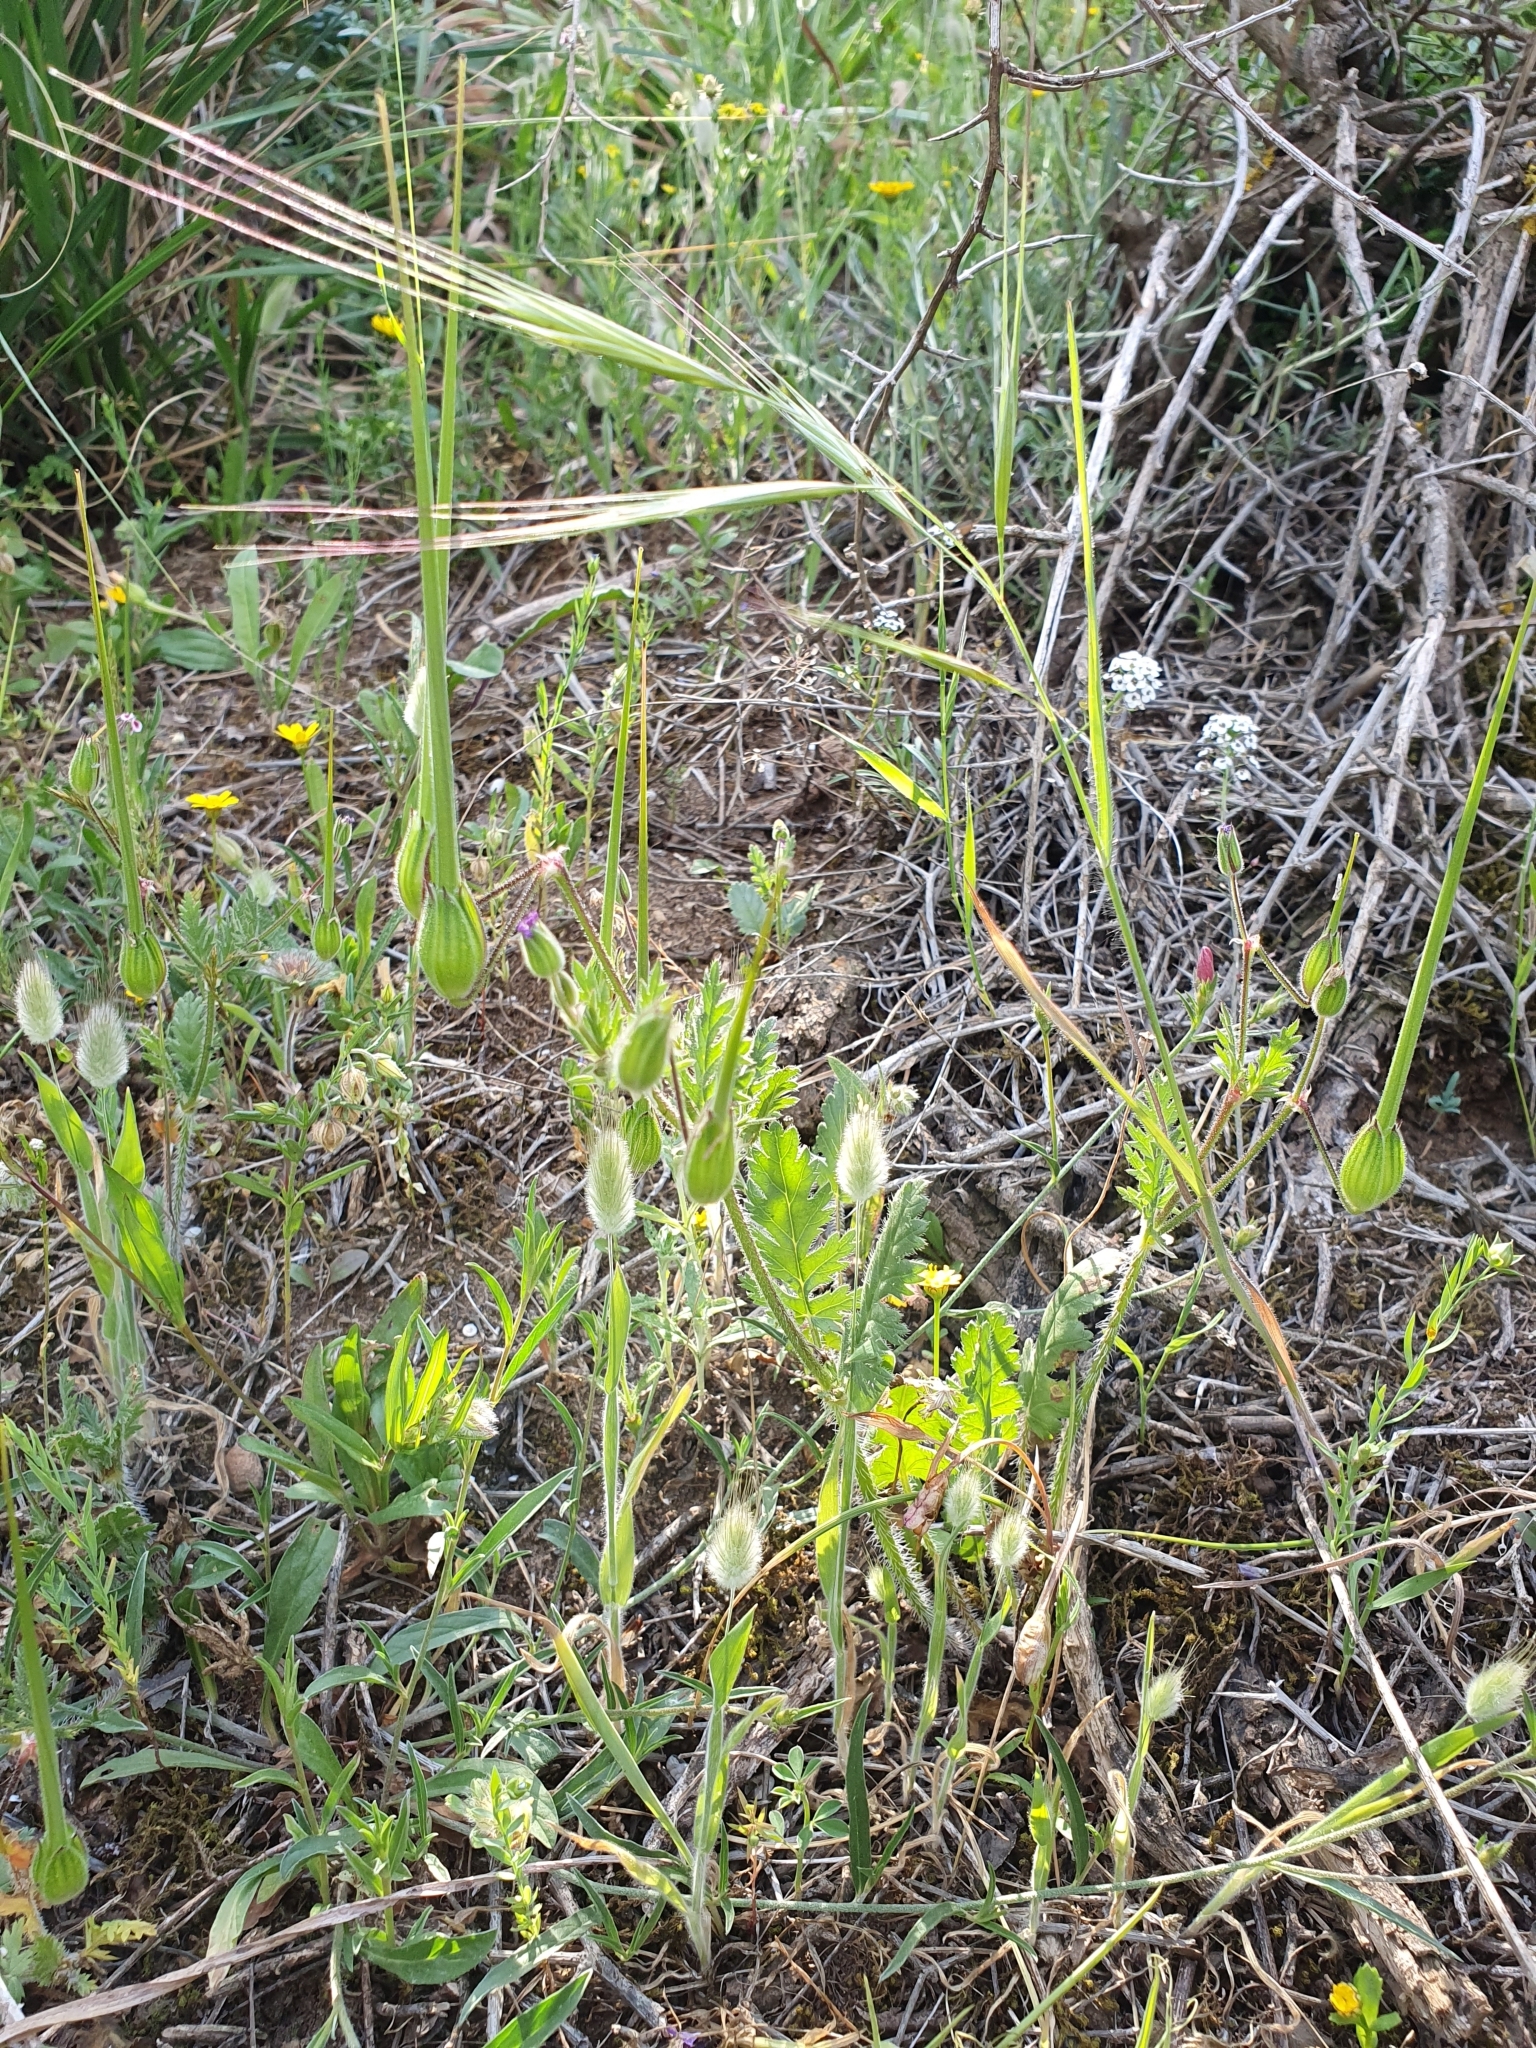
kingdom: Plantae
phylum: Tracheophyta
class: Magnoliopsida
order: Geraniales
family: Geraniaceae
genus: Erodium
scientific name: Erodium botrys
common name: Mediterranean stork's-bill
